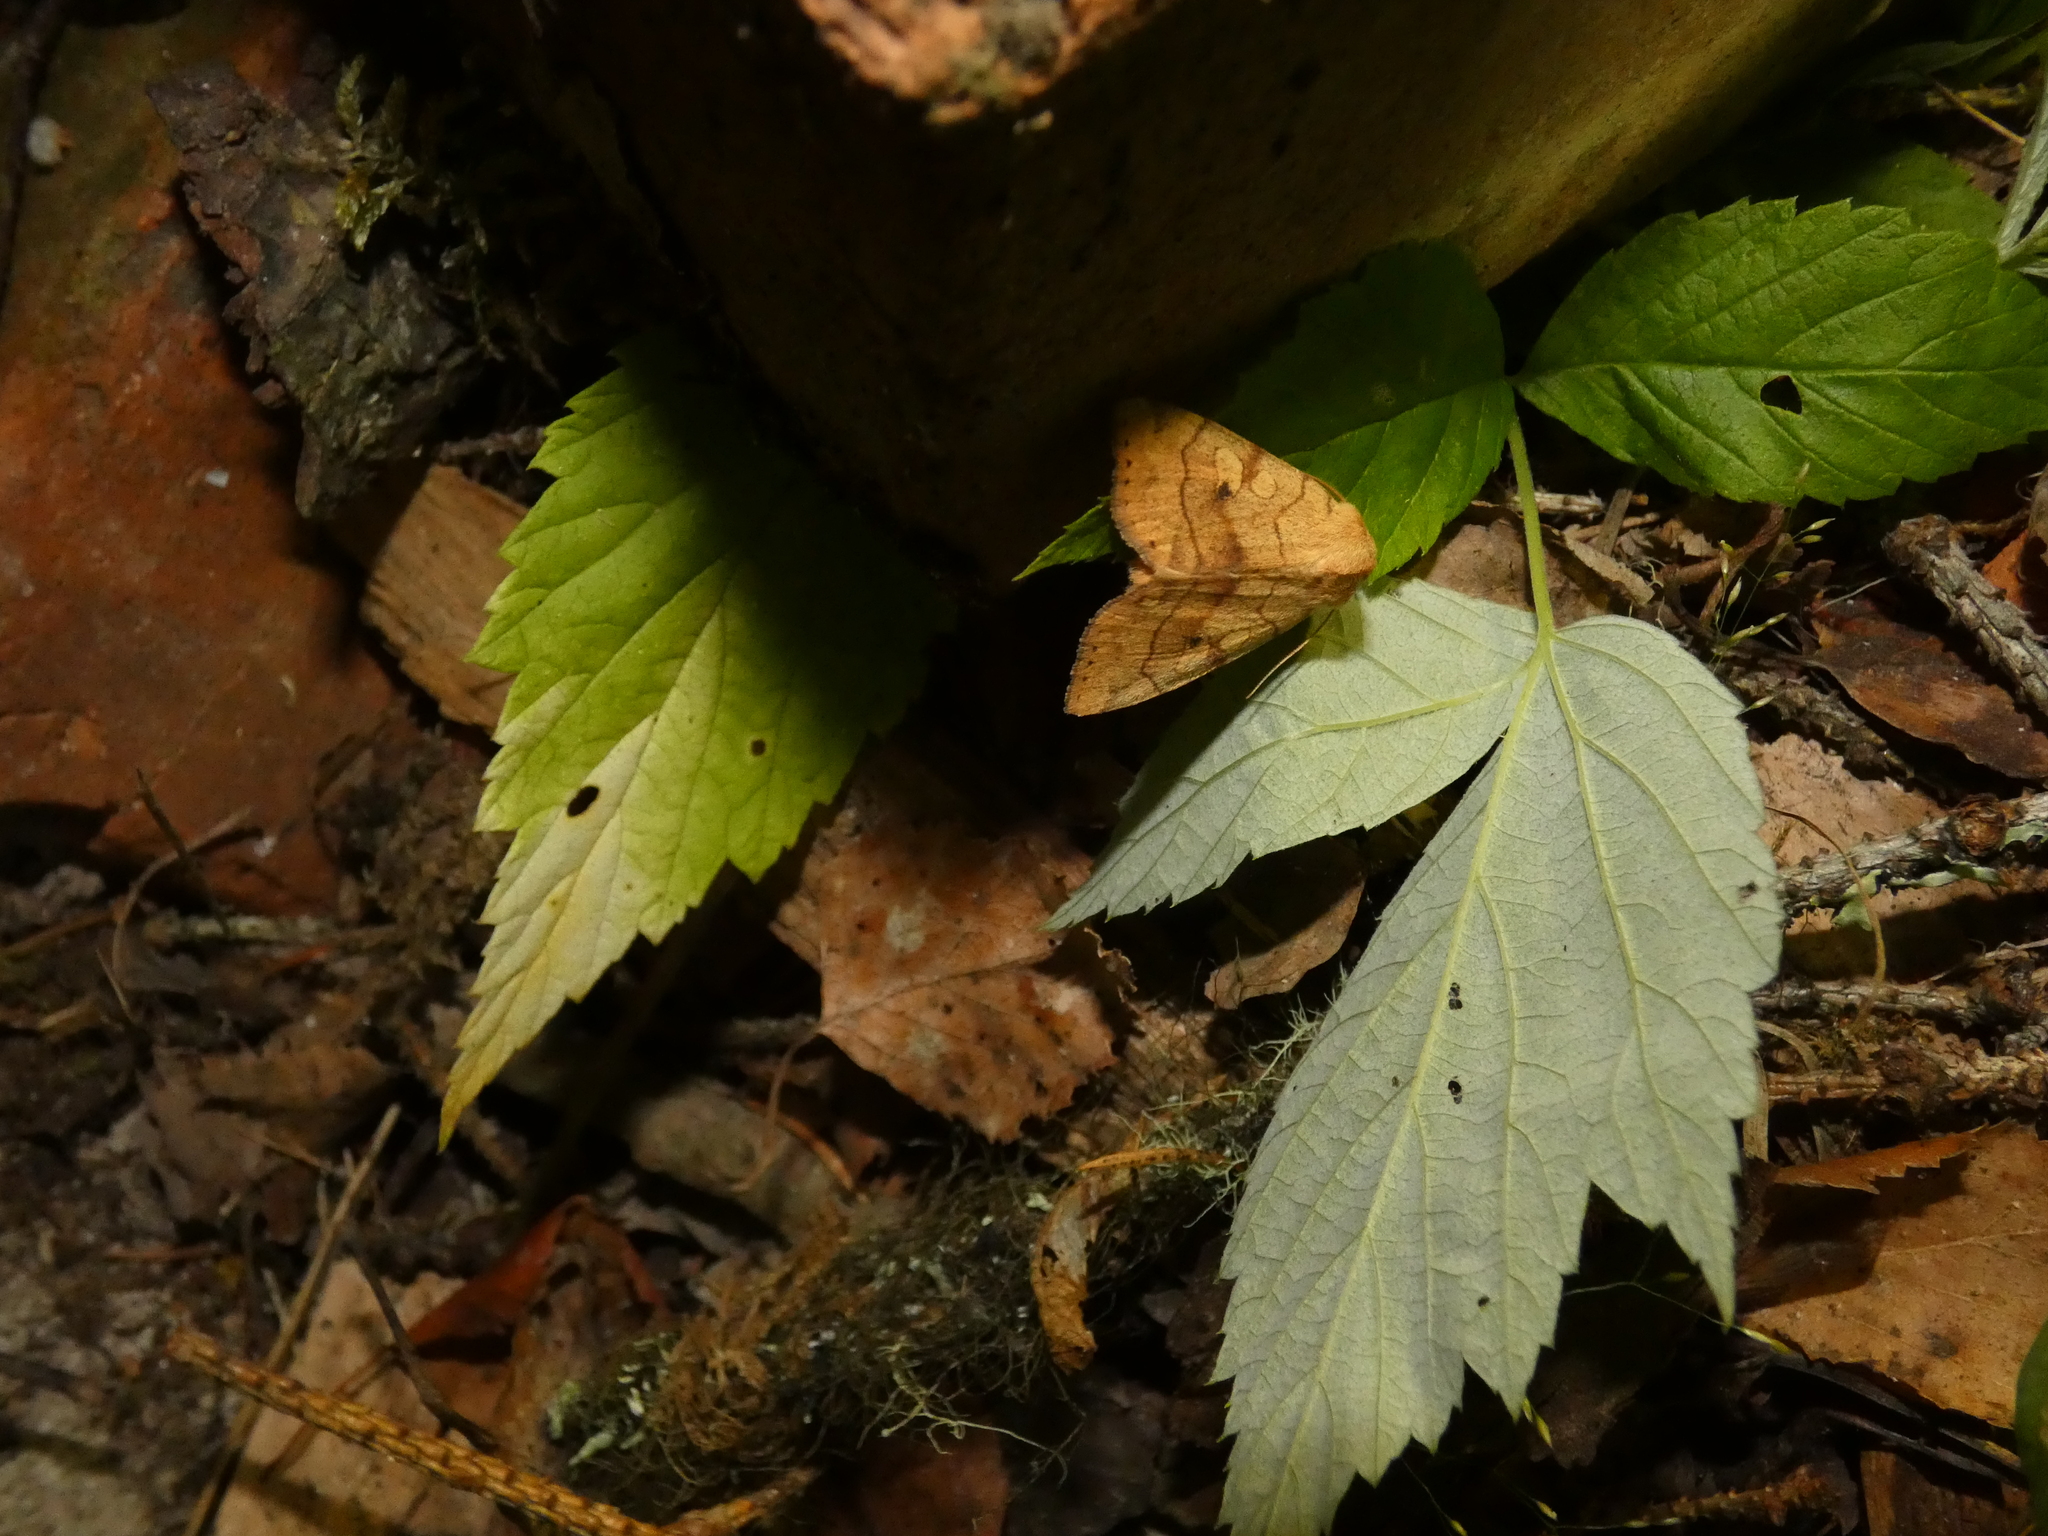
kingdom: Animalia
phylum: Arthropoda
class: Insecta
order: Lepidoptera
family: Noctuidae
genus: Enargia
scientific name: Enargia paleacea
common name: Angle-striped sallow
